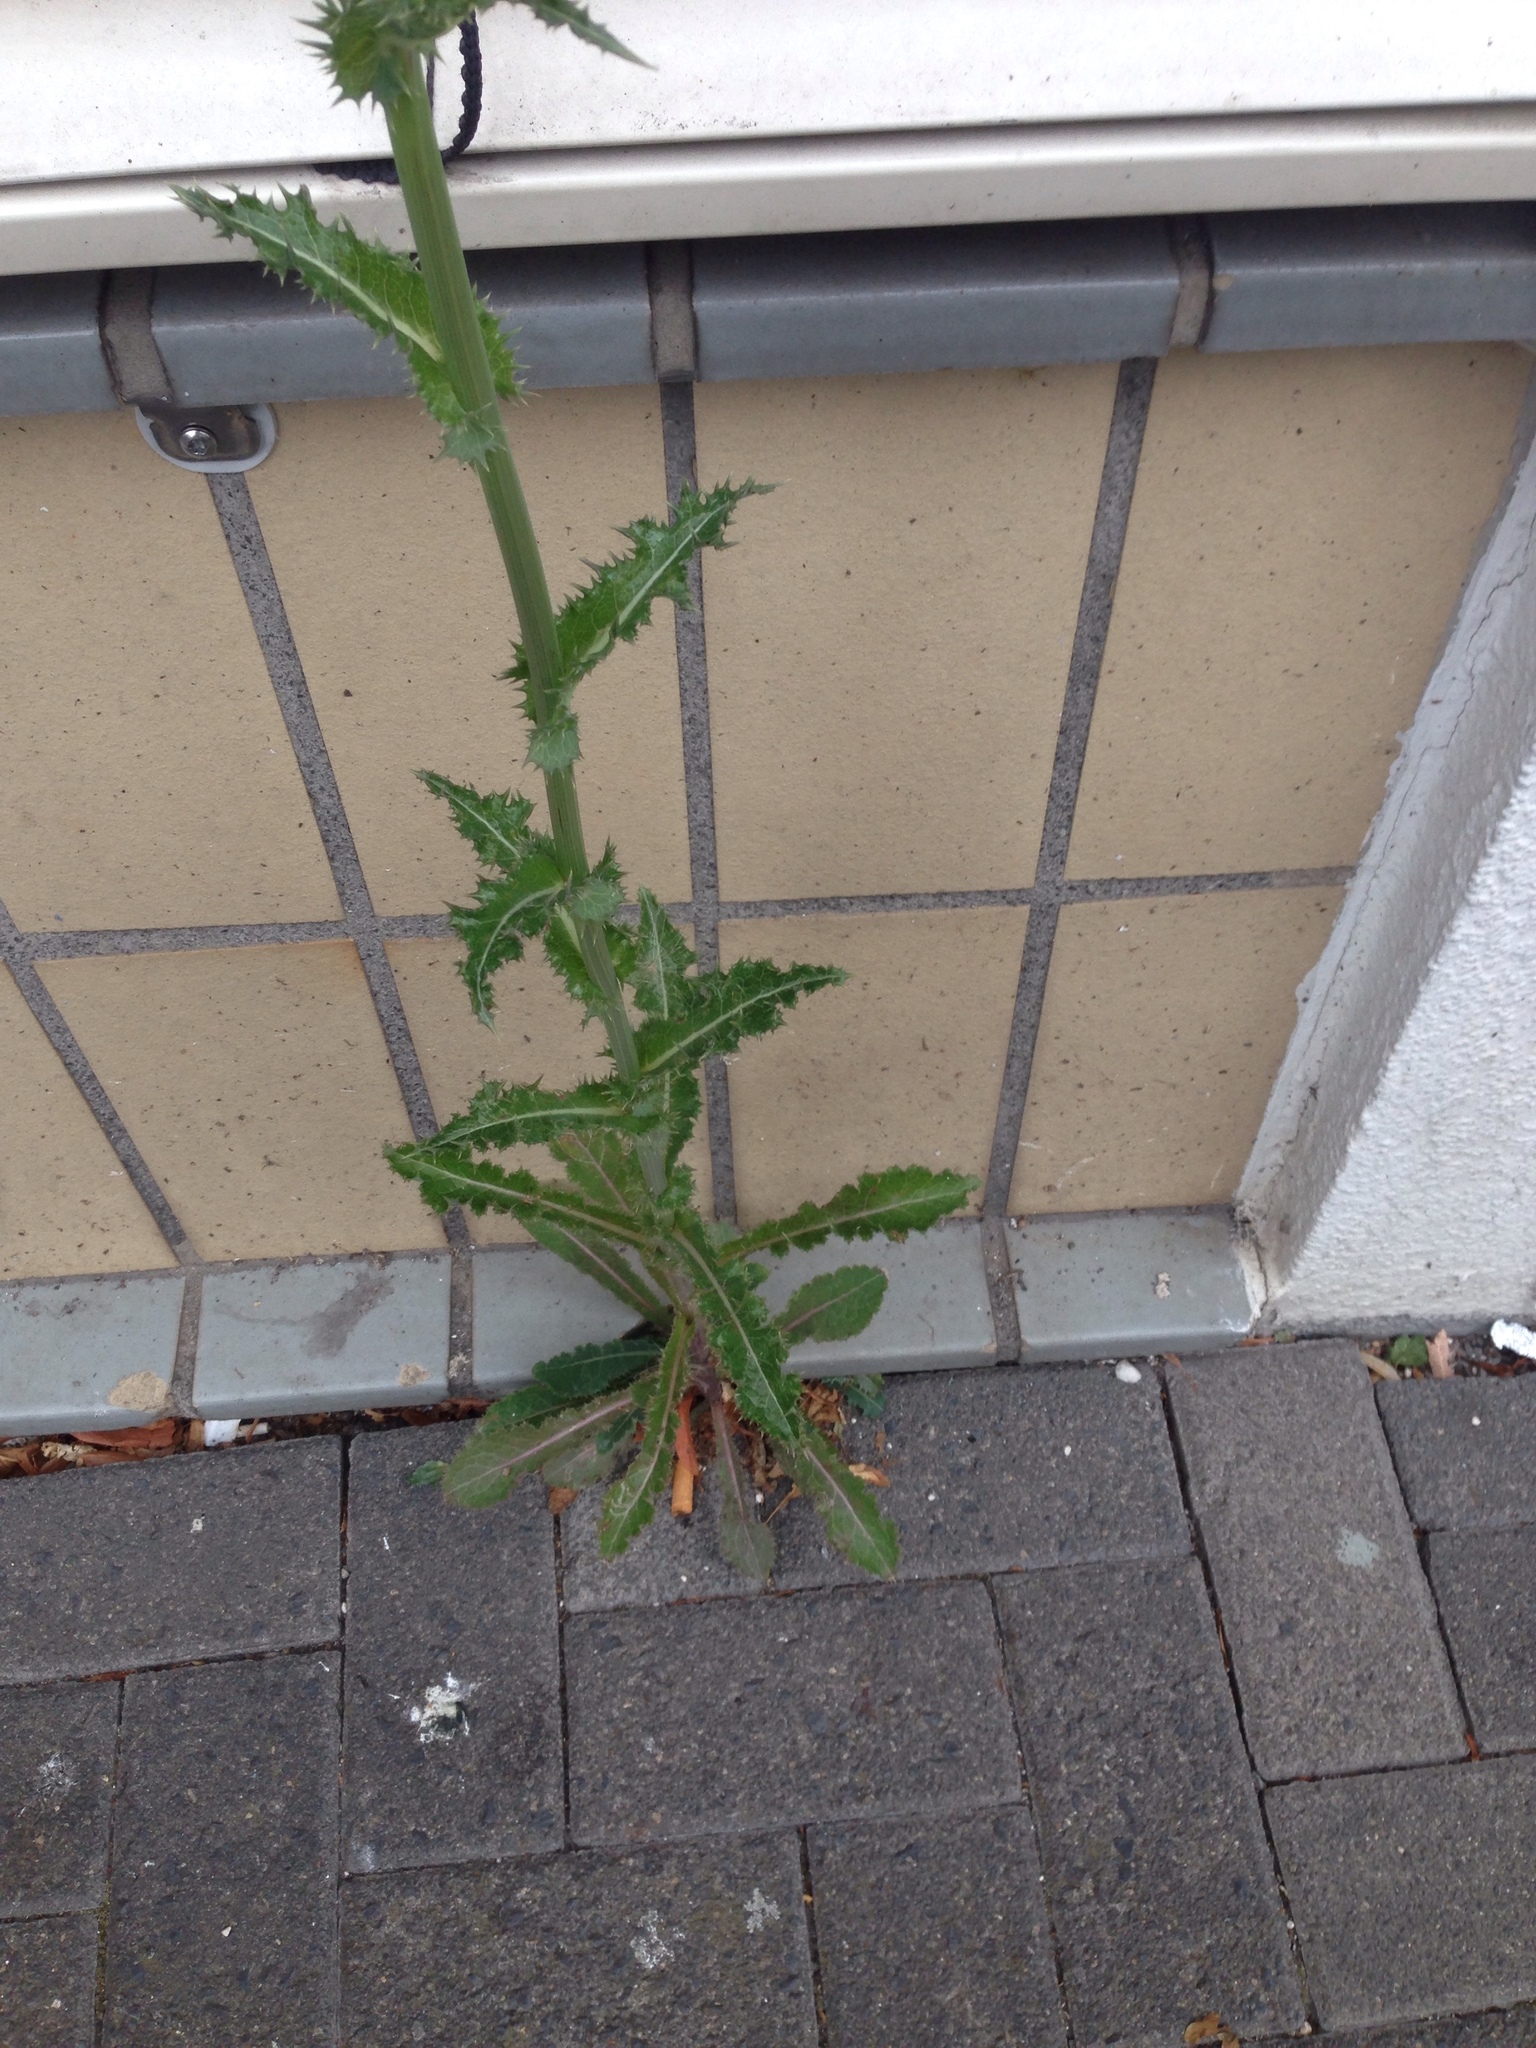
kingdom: Plantae
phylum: Tracheophyta
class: Magnoliopsida
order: Asterales
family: Asteraceae
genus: Sonchus
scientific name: Sonchus asper
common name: Prickly sow-thistle
